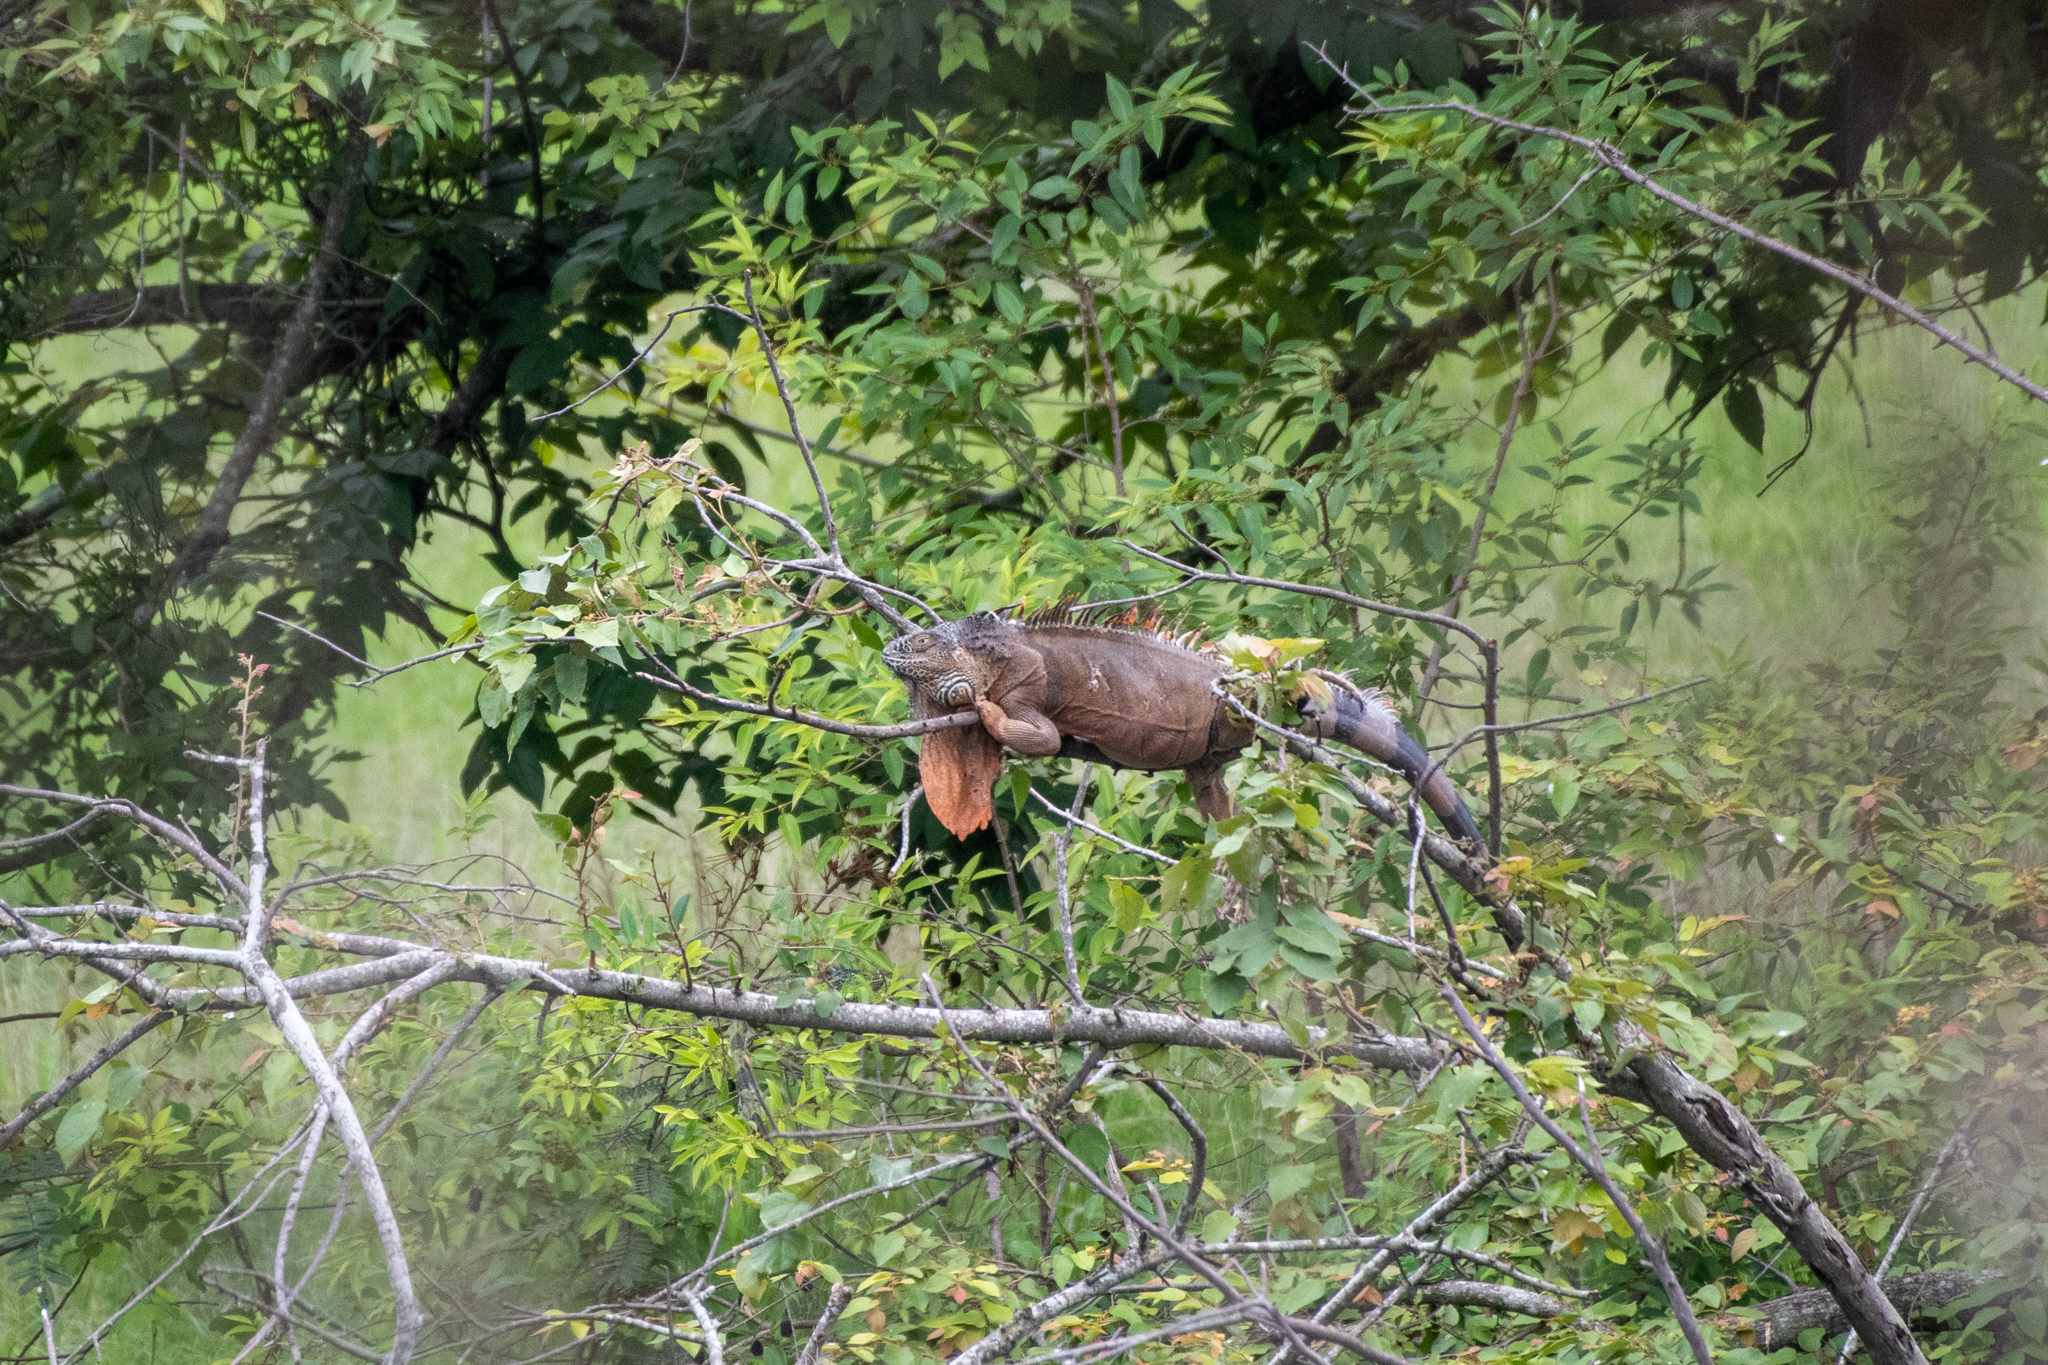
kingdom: Animalia
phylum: Chordata
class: Squamata
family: Iguanidae
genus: Iguana
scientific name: Iguana iguana
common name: Green iguana
